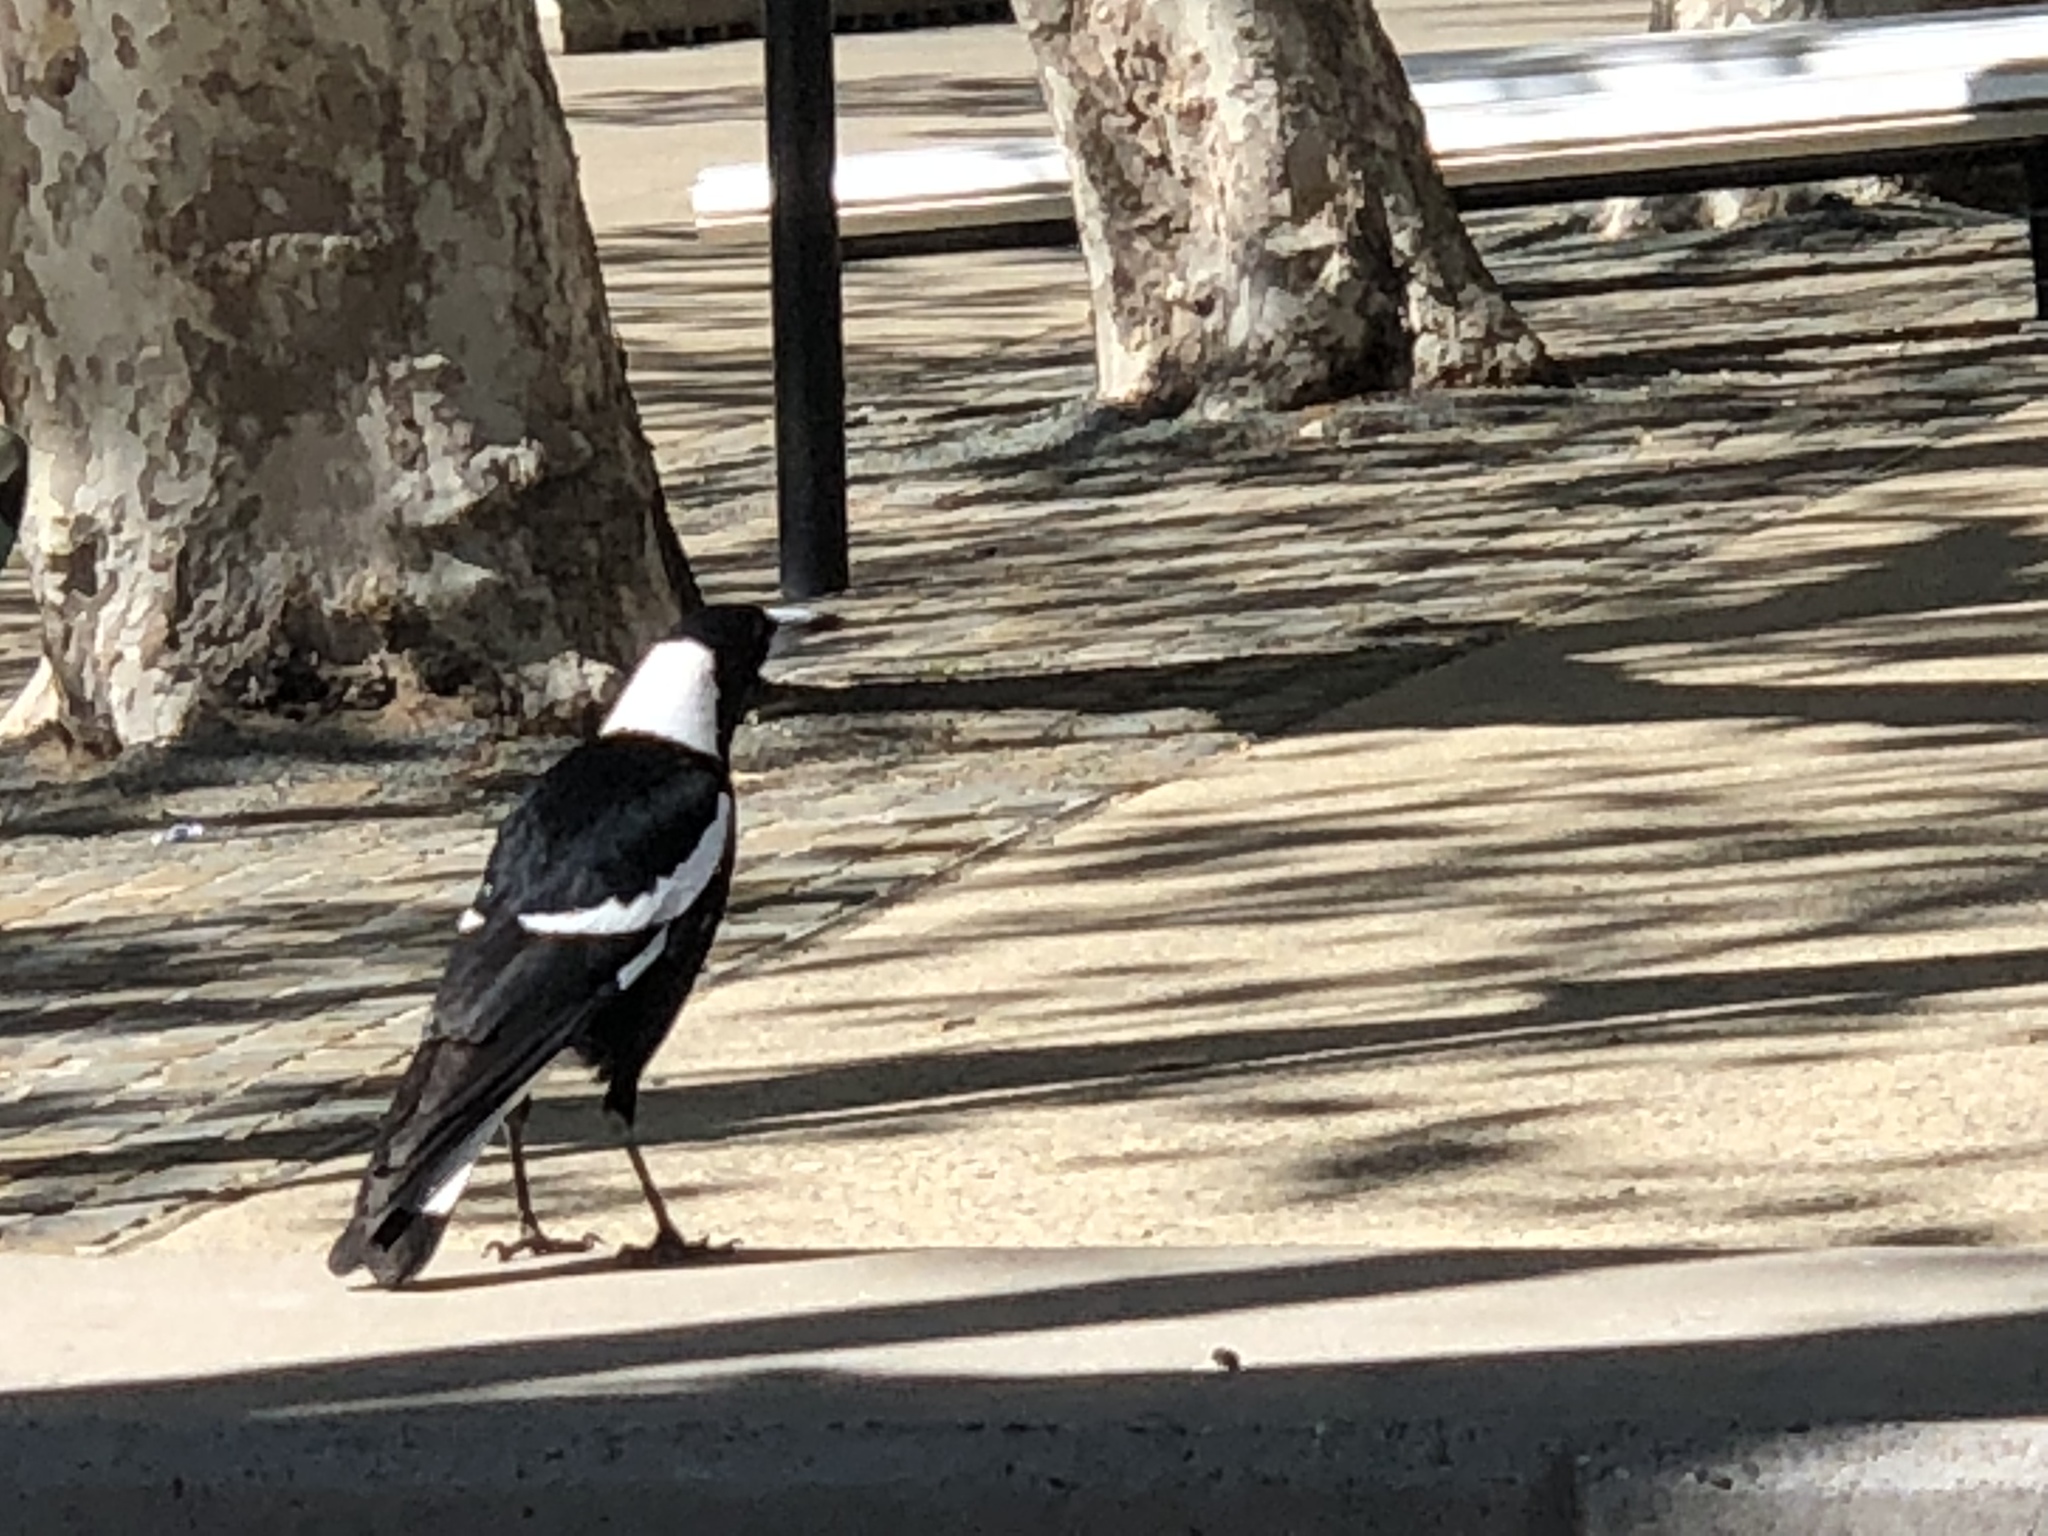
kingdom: Animalia
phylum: Chordata
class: Aves
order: Passeriformes
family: Cracticidae
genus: Gymnorhina
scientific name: Gymnorhina tibicen
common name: Australian magpie
